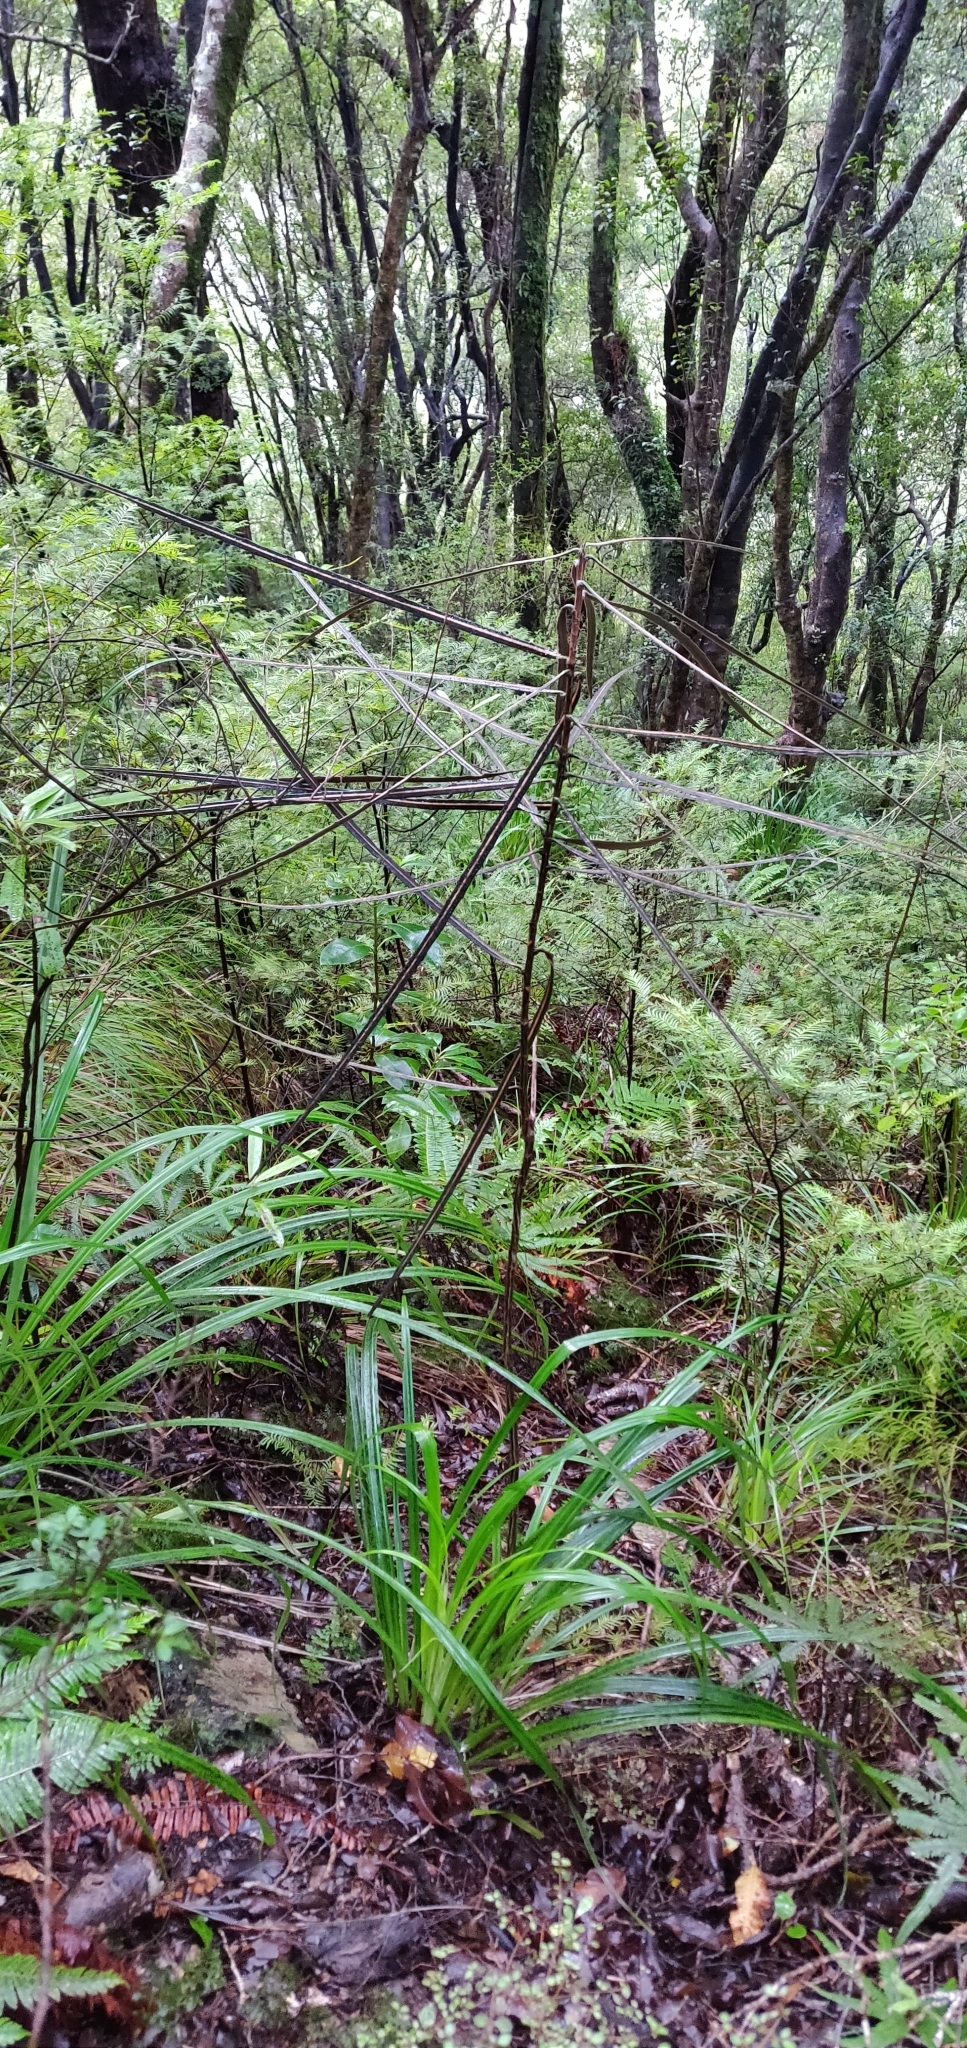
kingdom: Plantae
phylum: Tracheophyta
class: Magnoliopsida
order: Apiales
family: Araliaceae
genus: Pseudopanax
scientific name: Pseudopanax crassifolius
